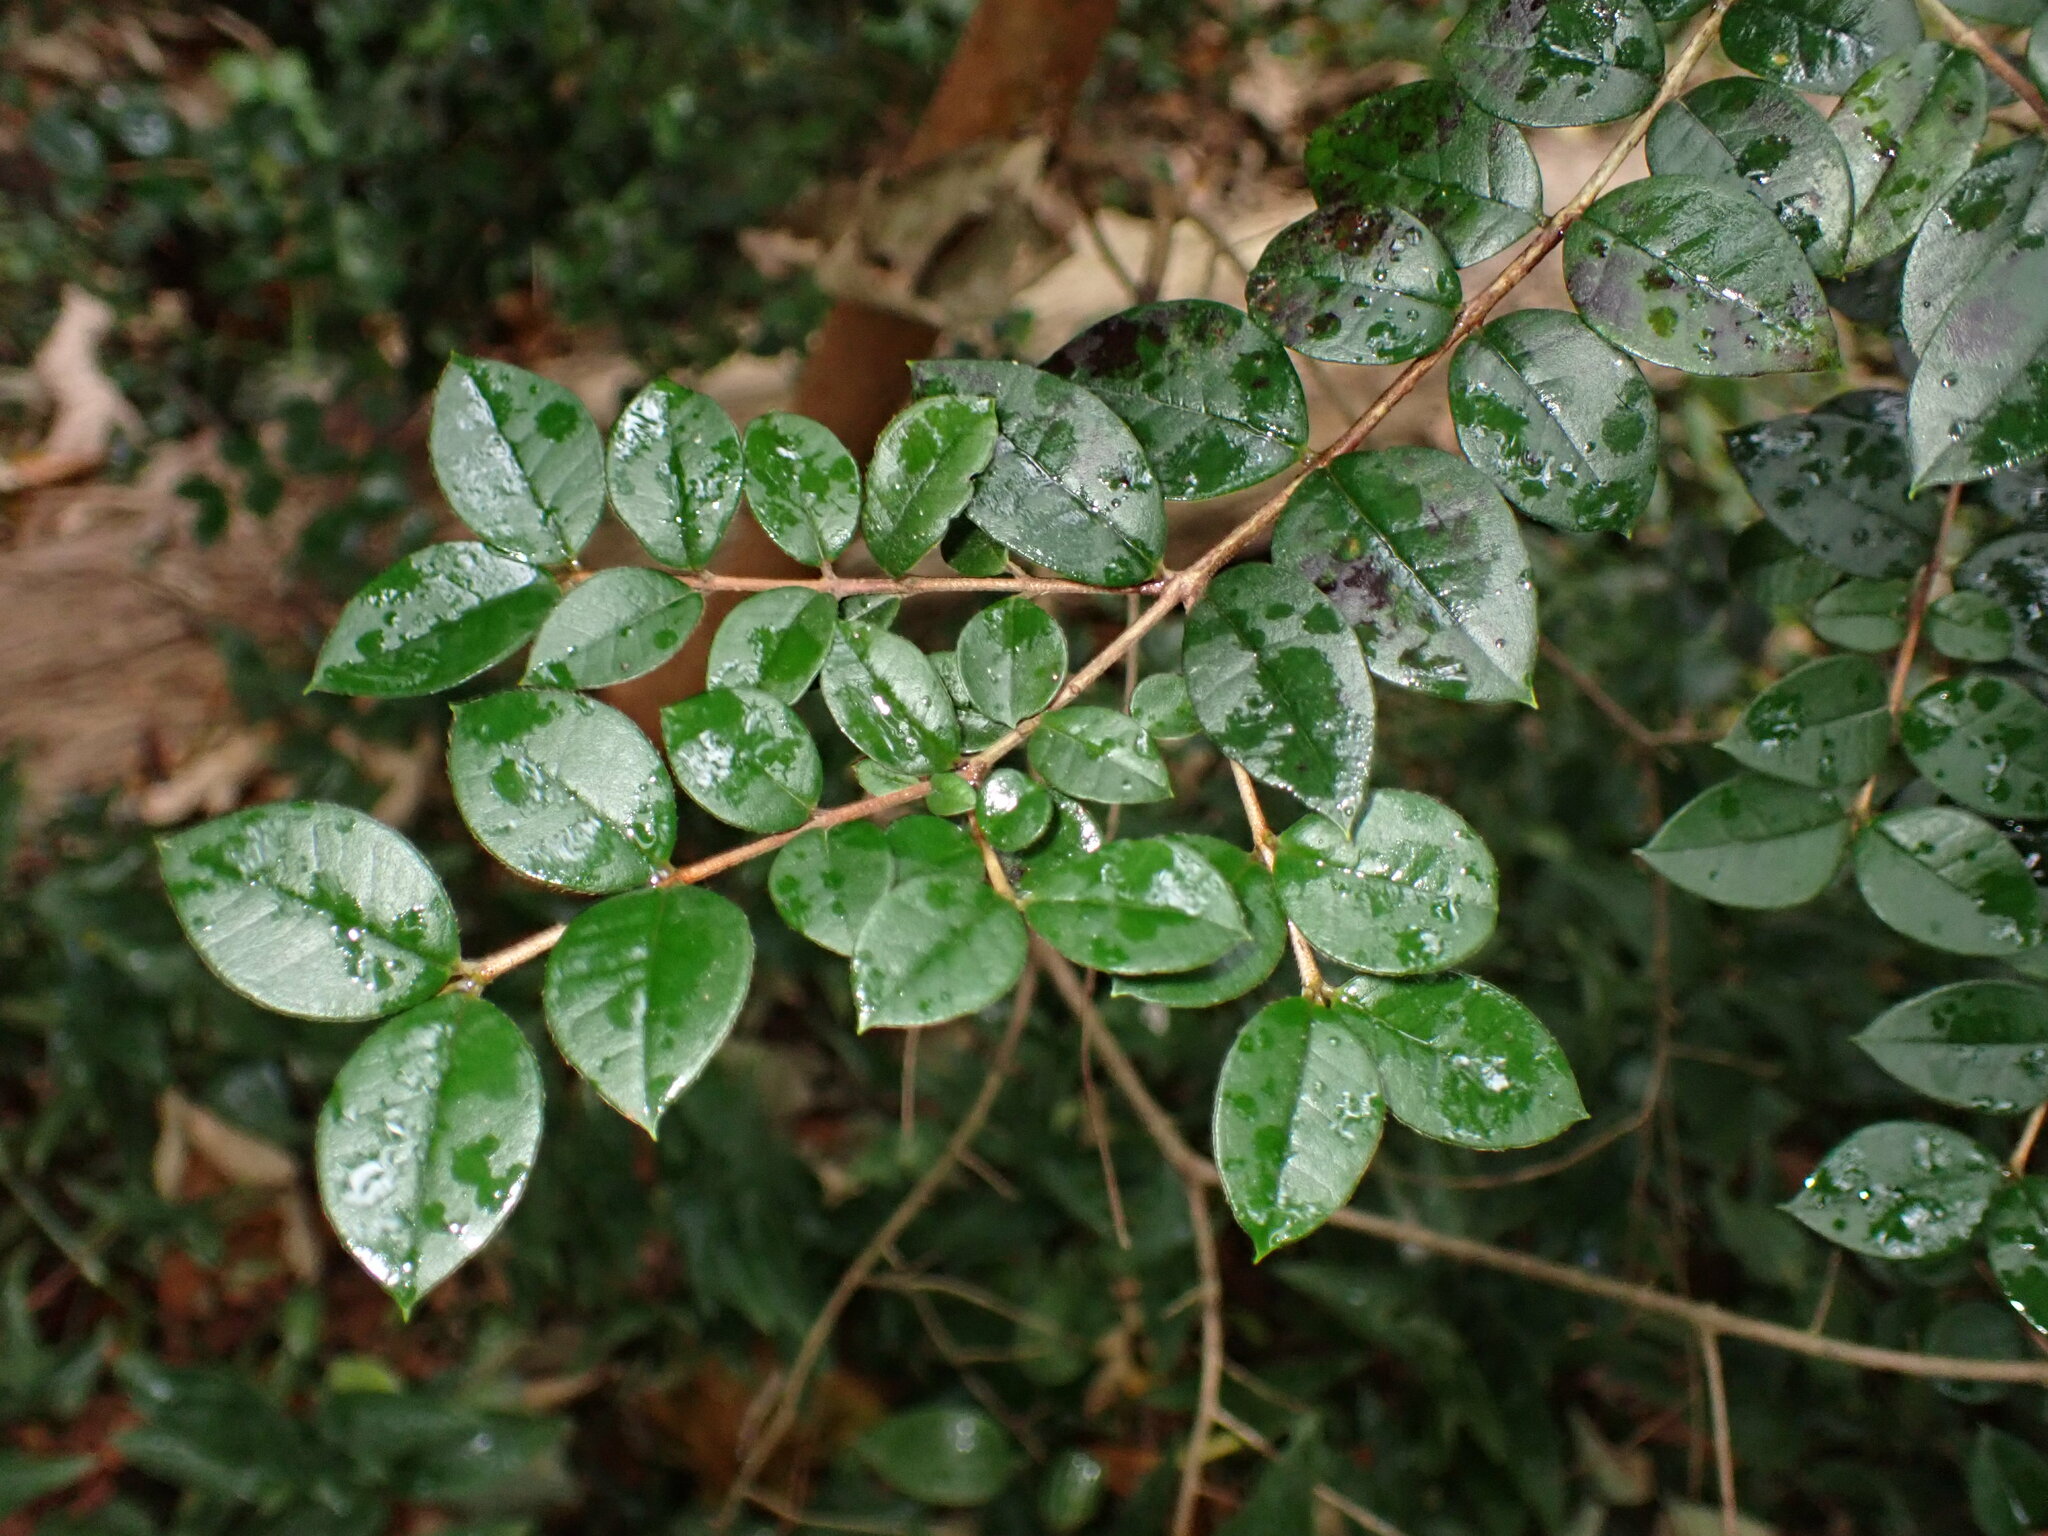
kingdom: Plantae
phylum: Tracheophyta
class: Magnoliopsida
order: Myrtales
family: Myrtaceae
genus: Myrtus
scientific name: Myrtus communis
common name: Myrtle
